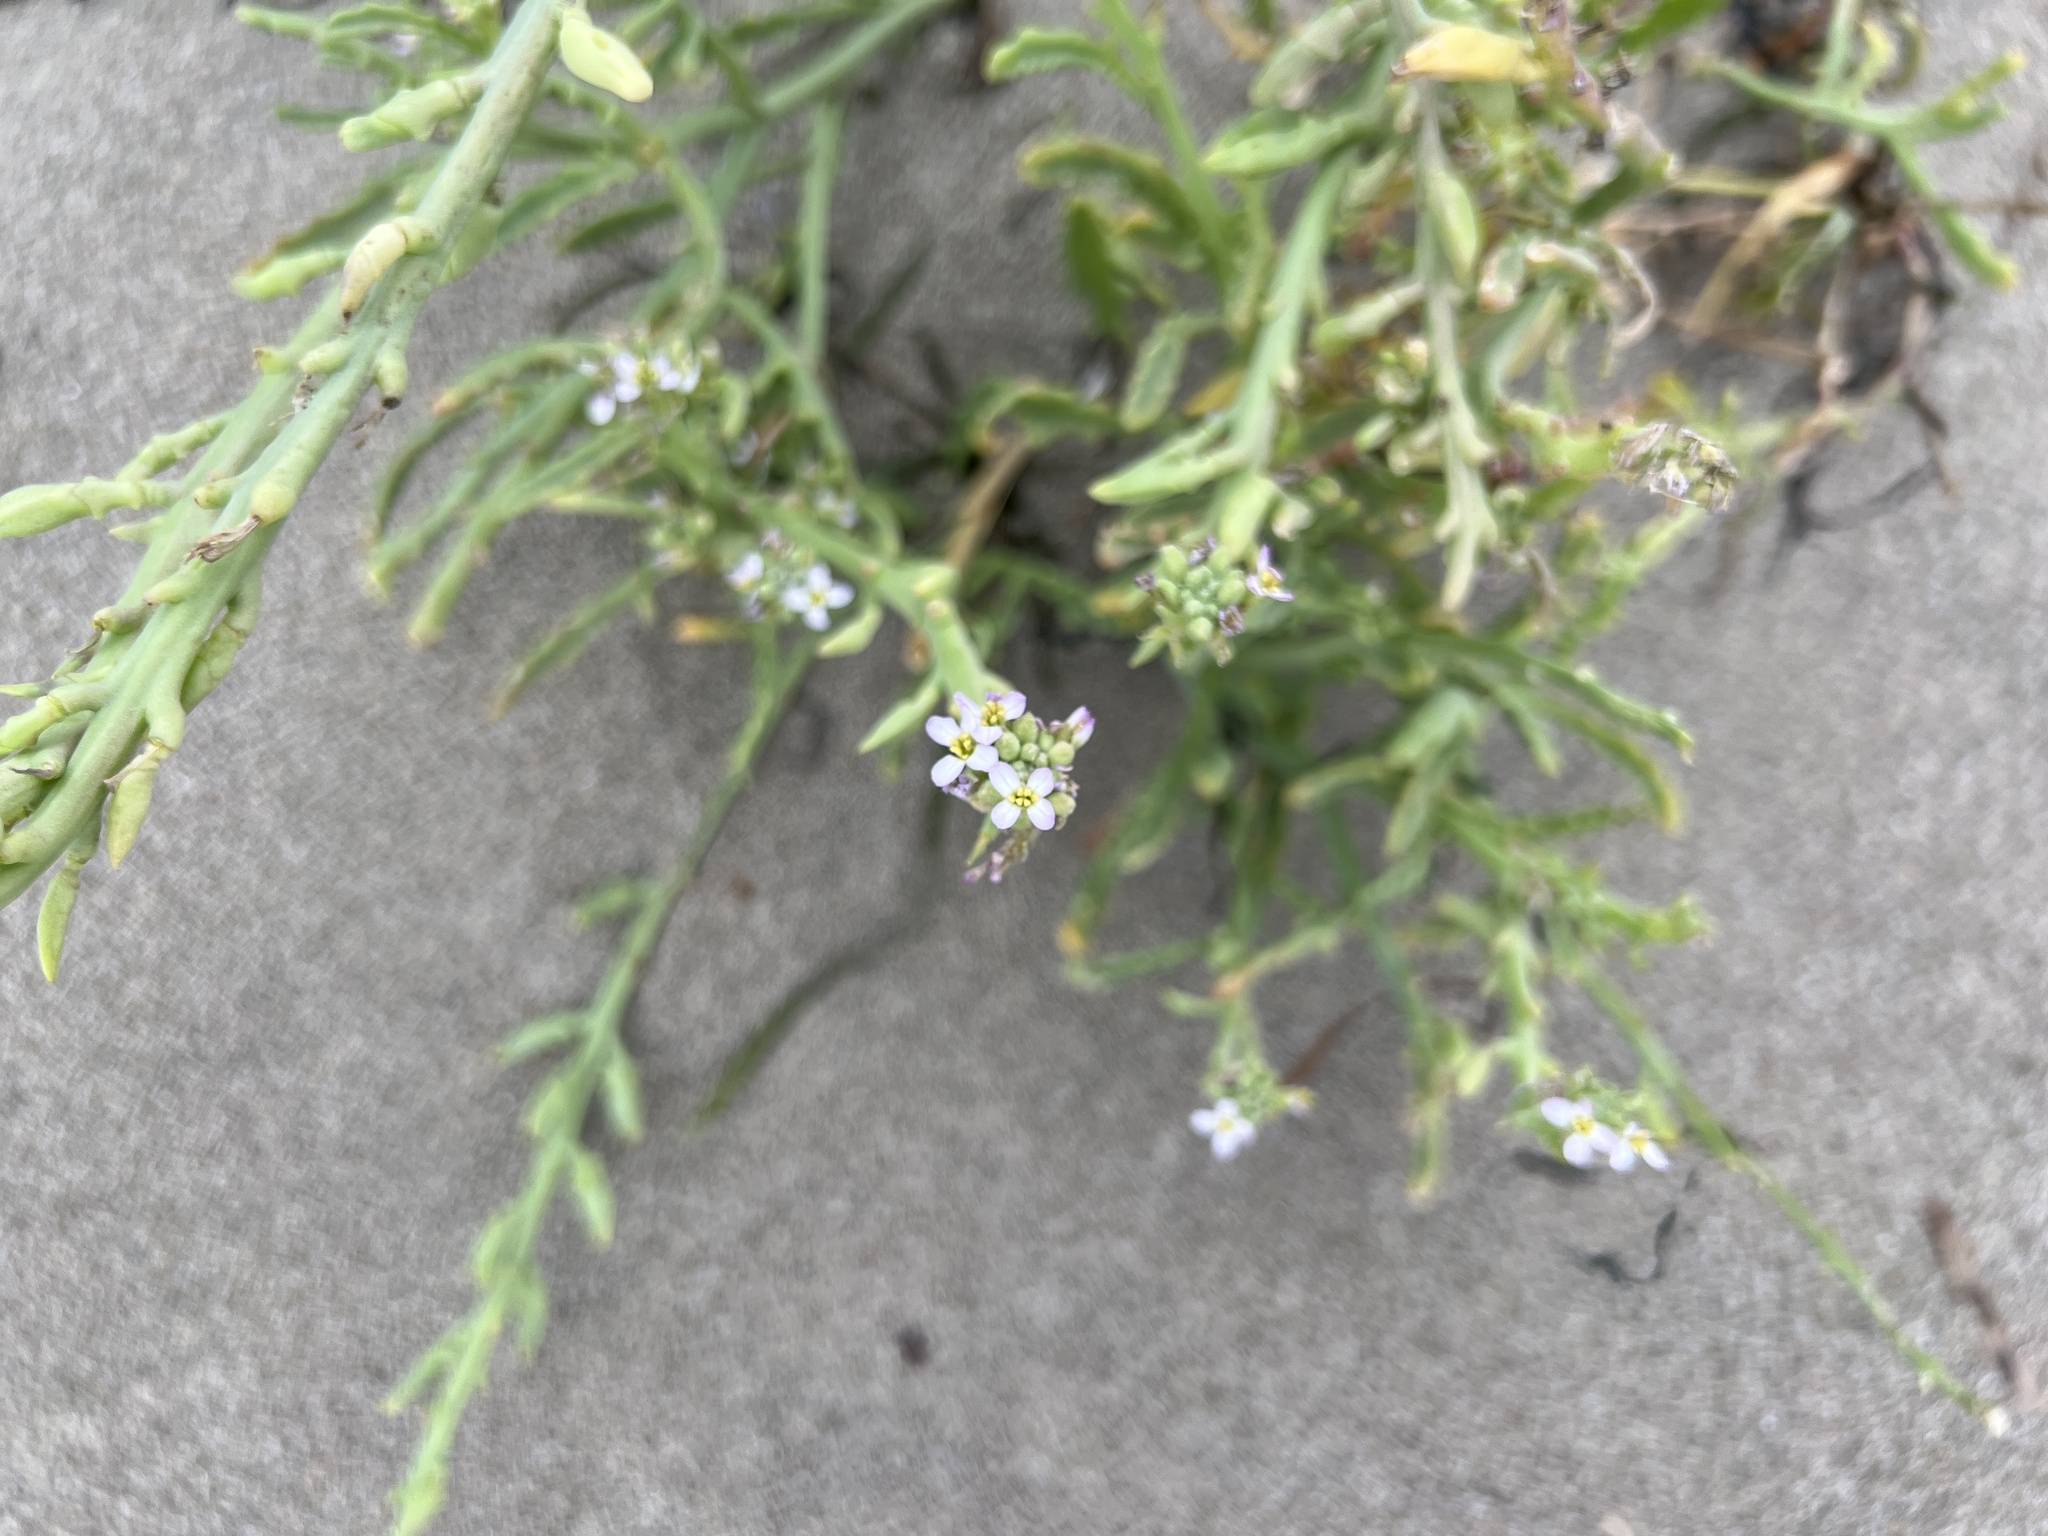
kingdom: Plantae
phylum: Tracheophyta
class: Magnoliopsida
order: Brassicales
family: Brassicaceae
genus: Cakile
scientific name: Cakile maritima
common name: Sea rocket
